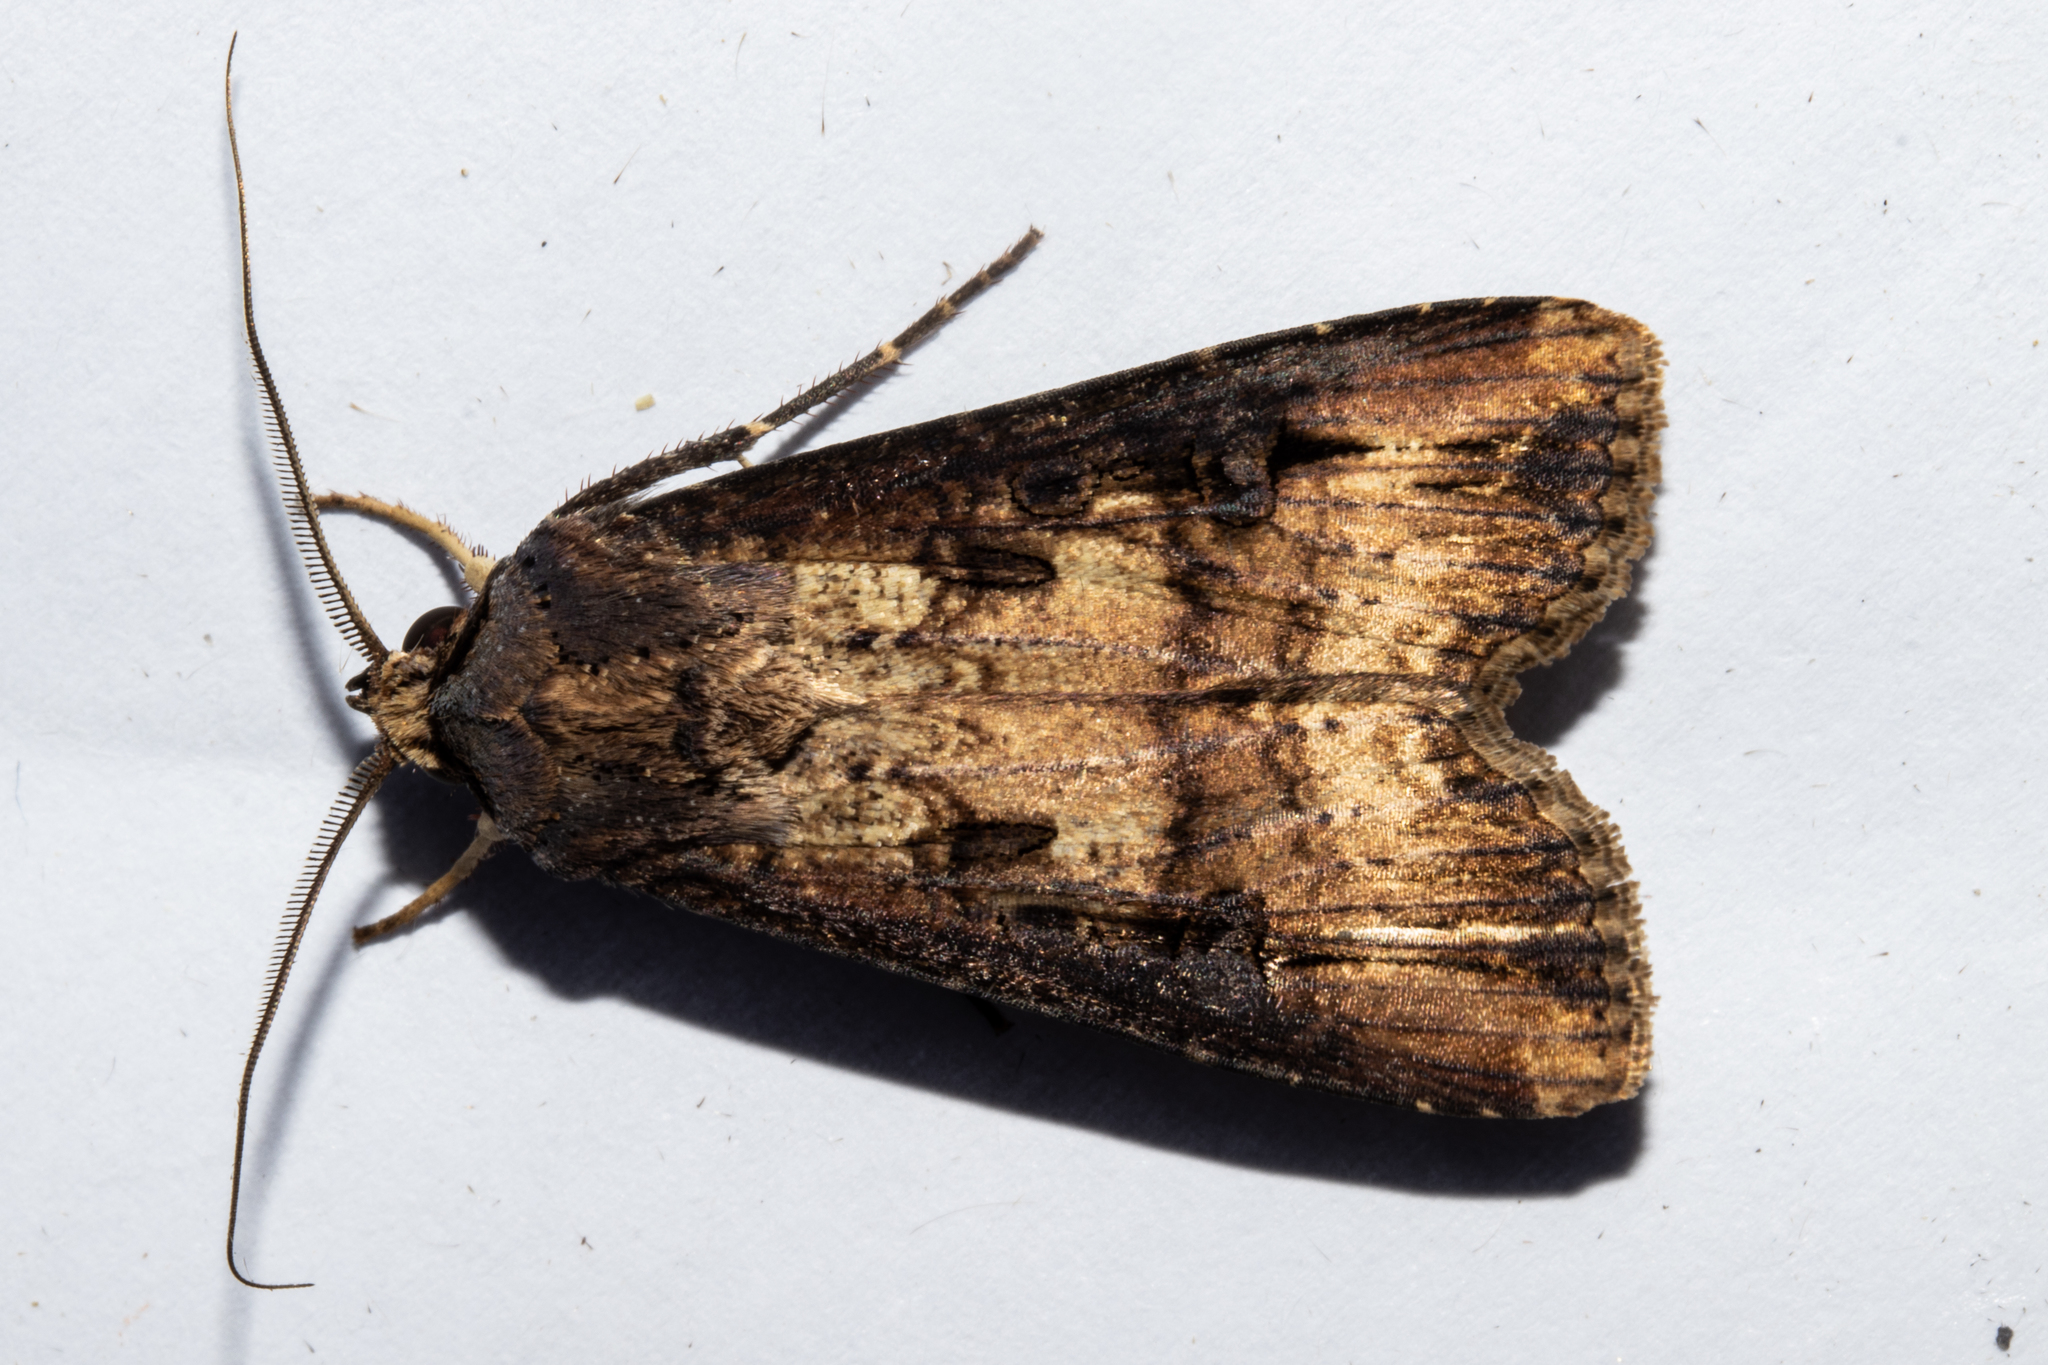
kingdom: Animalia
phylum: Arthropoda
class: Insecta
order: Lepidoptera
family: Noctuidae
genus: Agrotis
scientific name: Agrotis ipsilon
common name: Dark sword-grass
